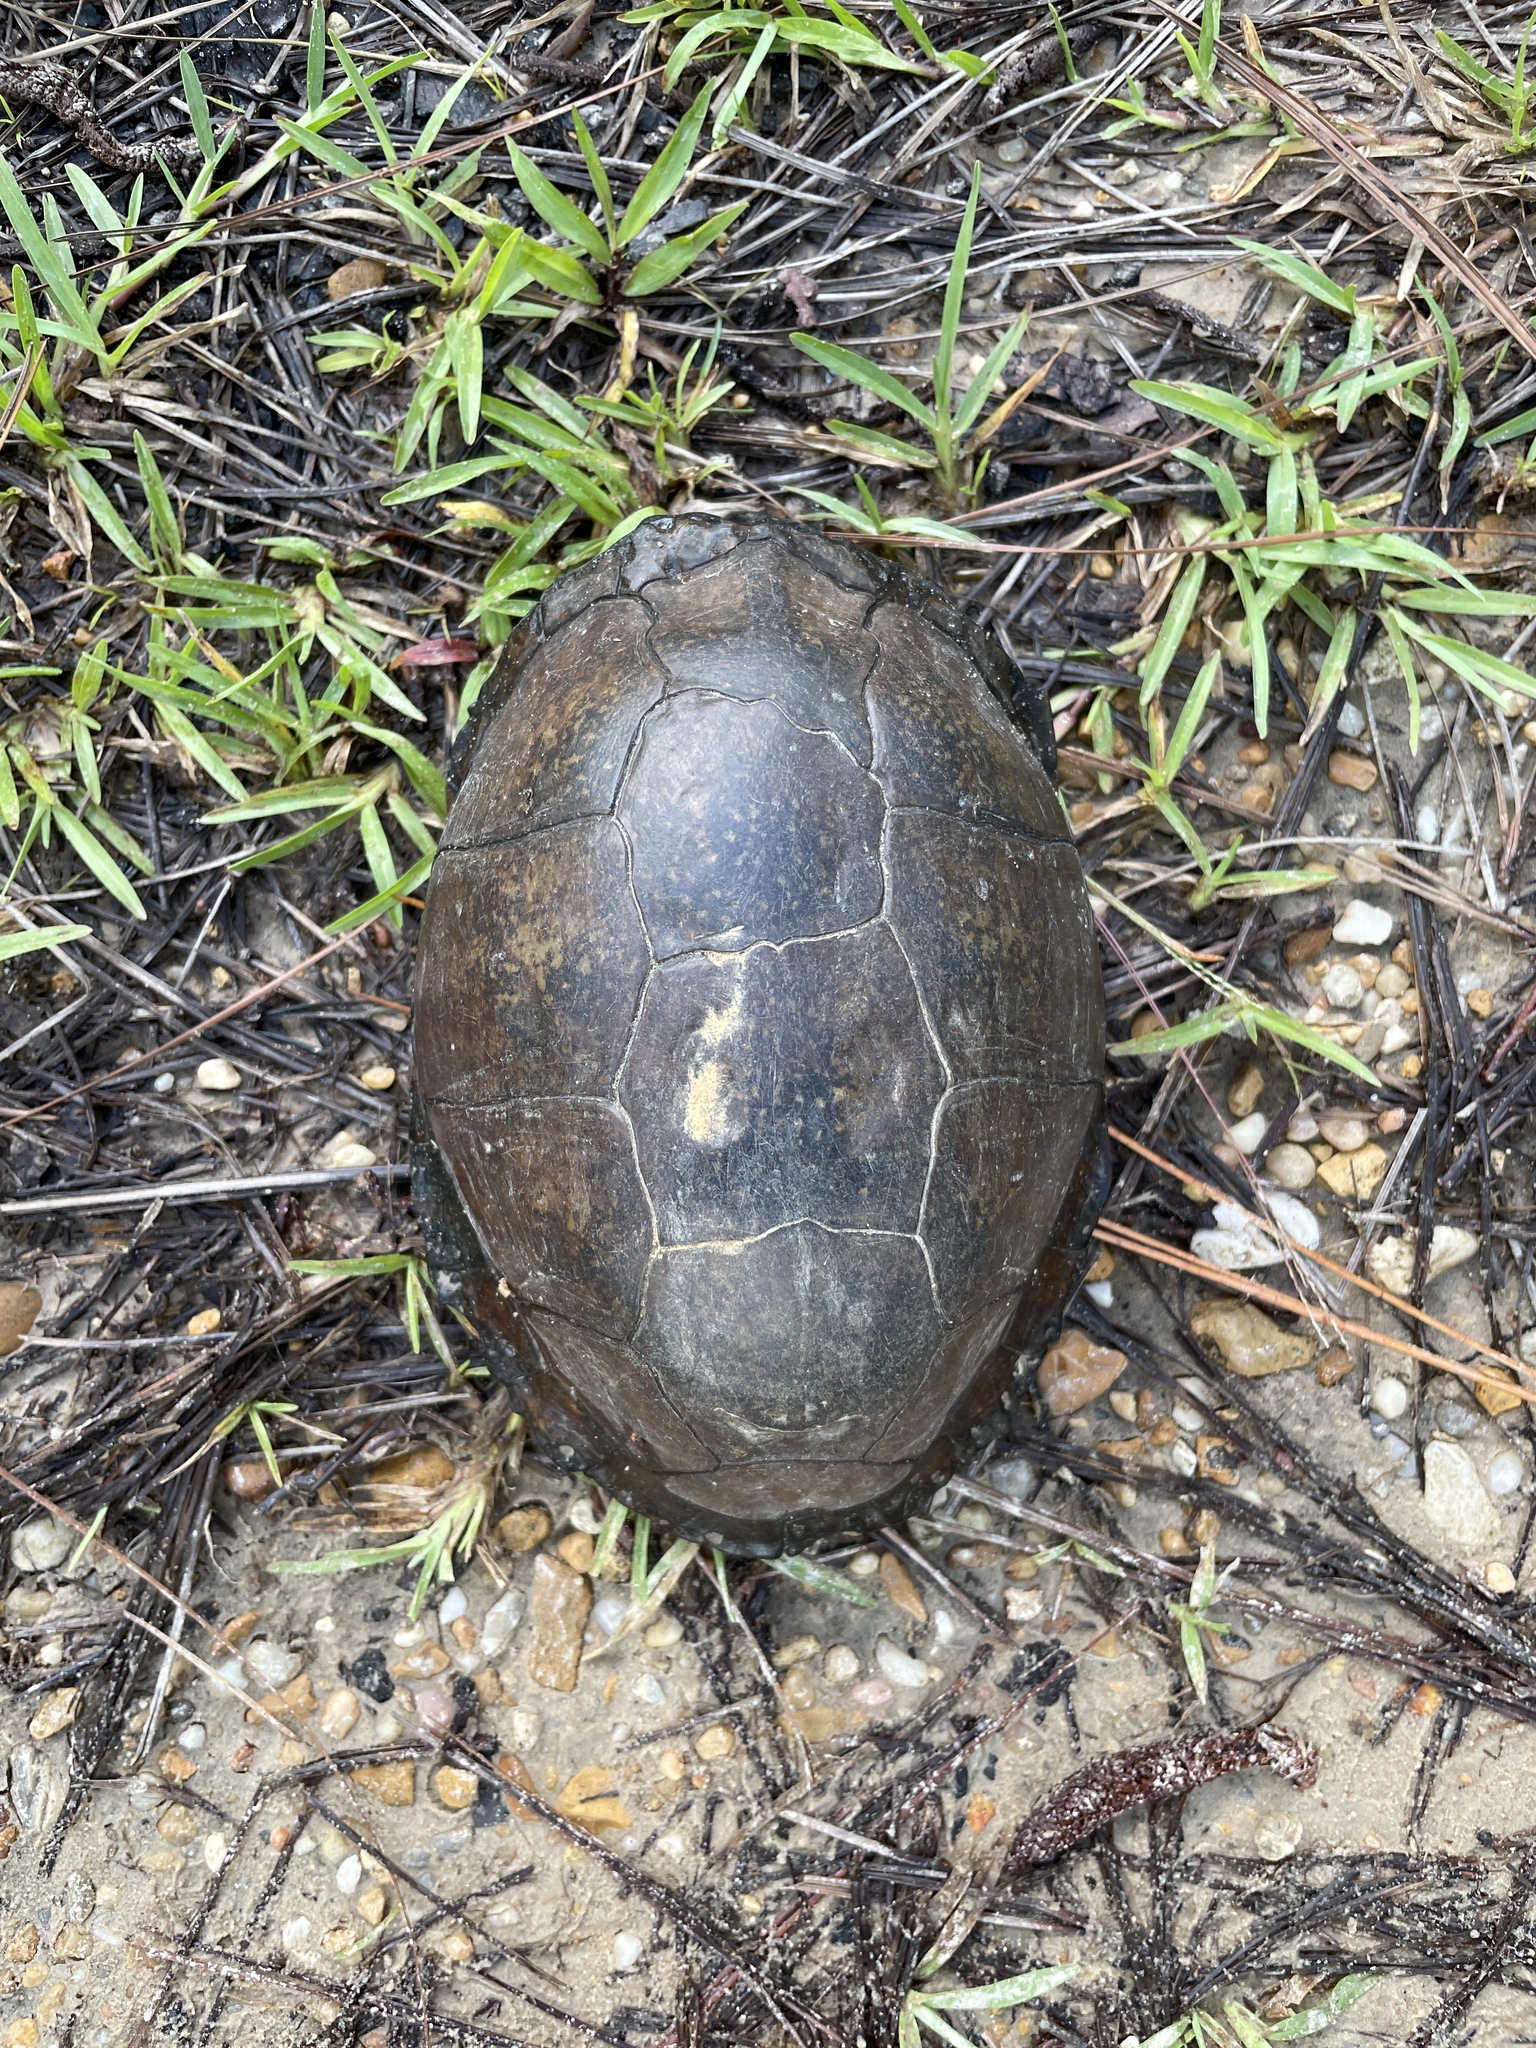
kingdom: Animalia
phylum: Chordata
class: Testudines
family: Emydidae
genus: Terrapene
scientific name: Terrapene carolina
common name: Common box turtle
